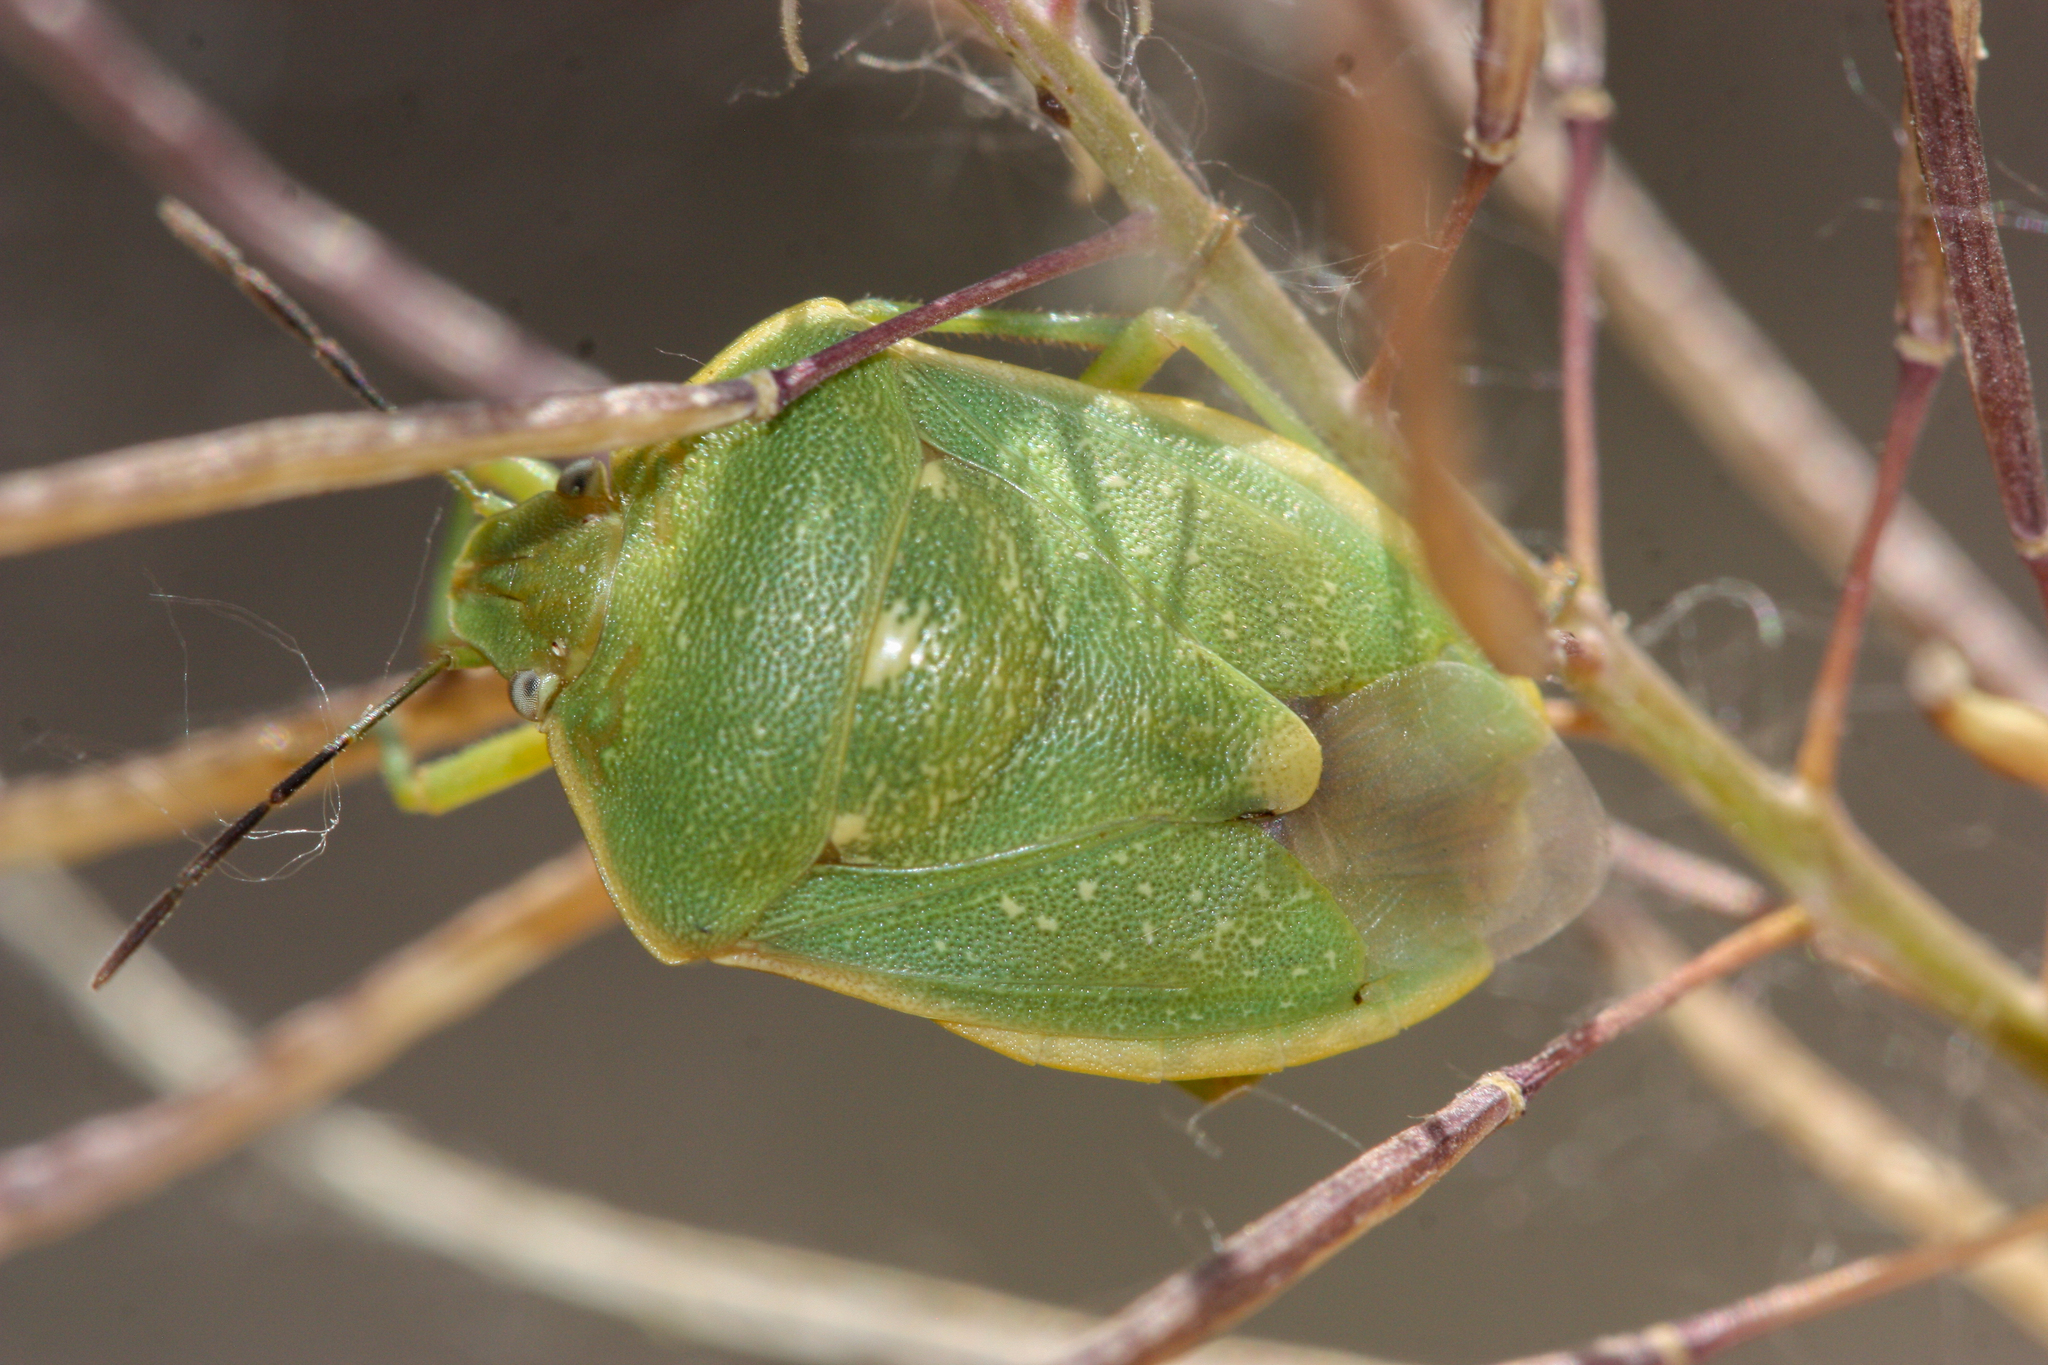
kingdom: Animalia
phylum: Arthropoda
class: Insecta
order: Hemiptera
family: Pentatomidae
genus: Chlorochroa
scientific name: Chlorochroa uhleri
